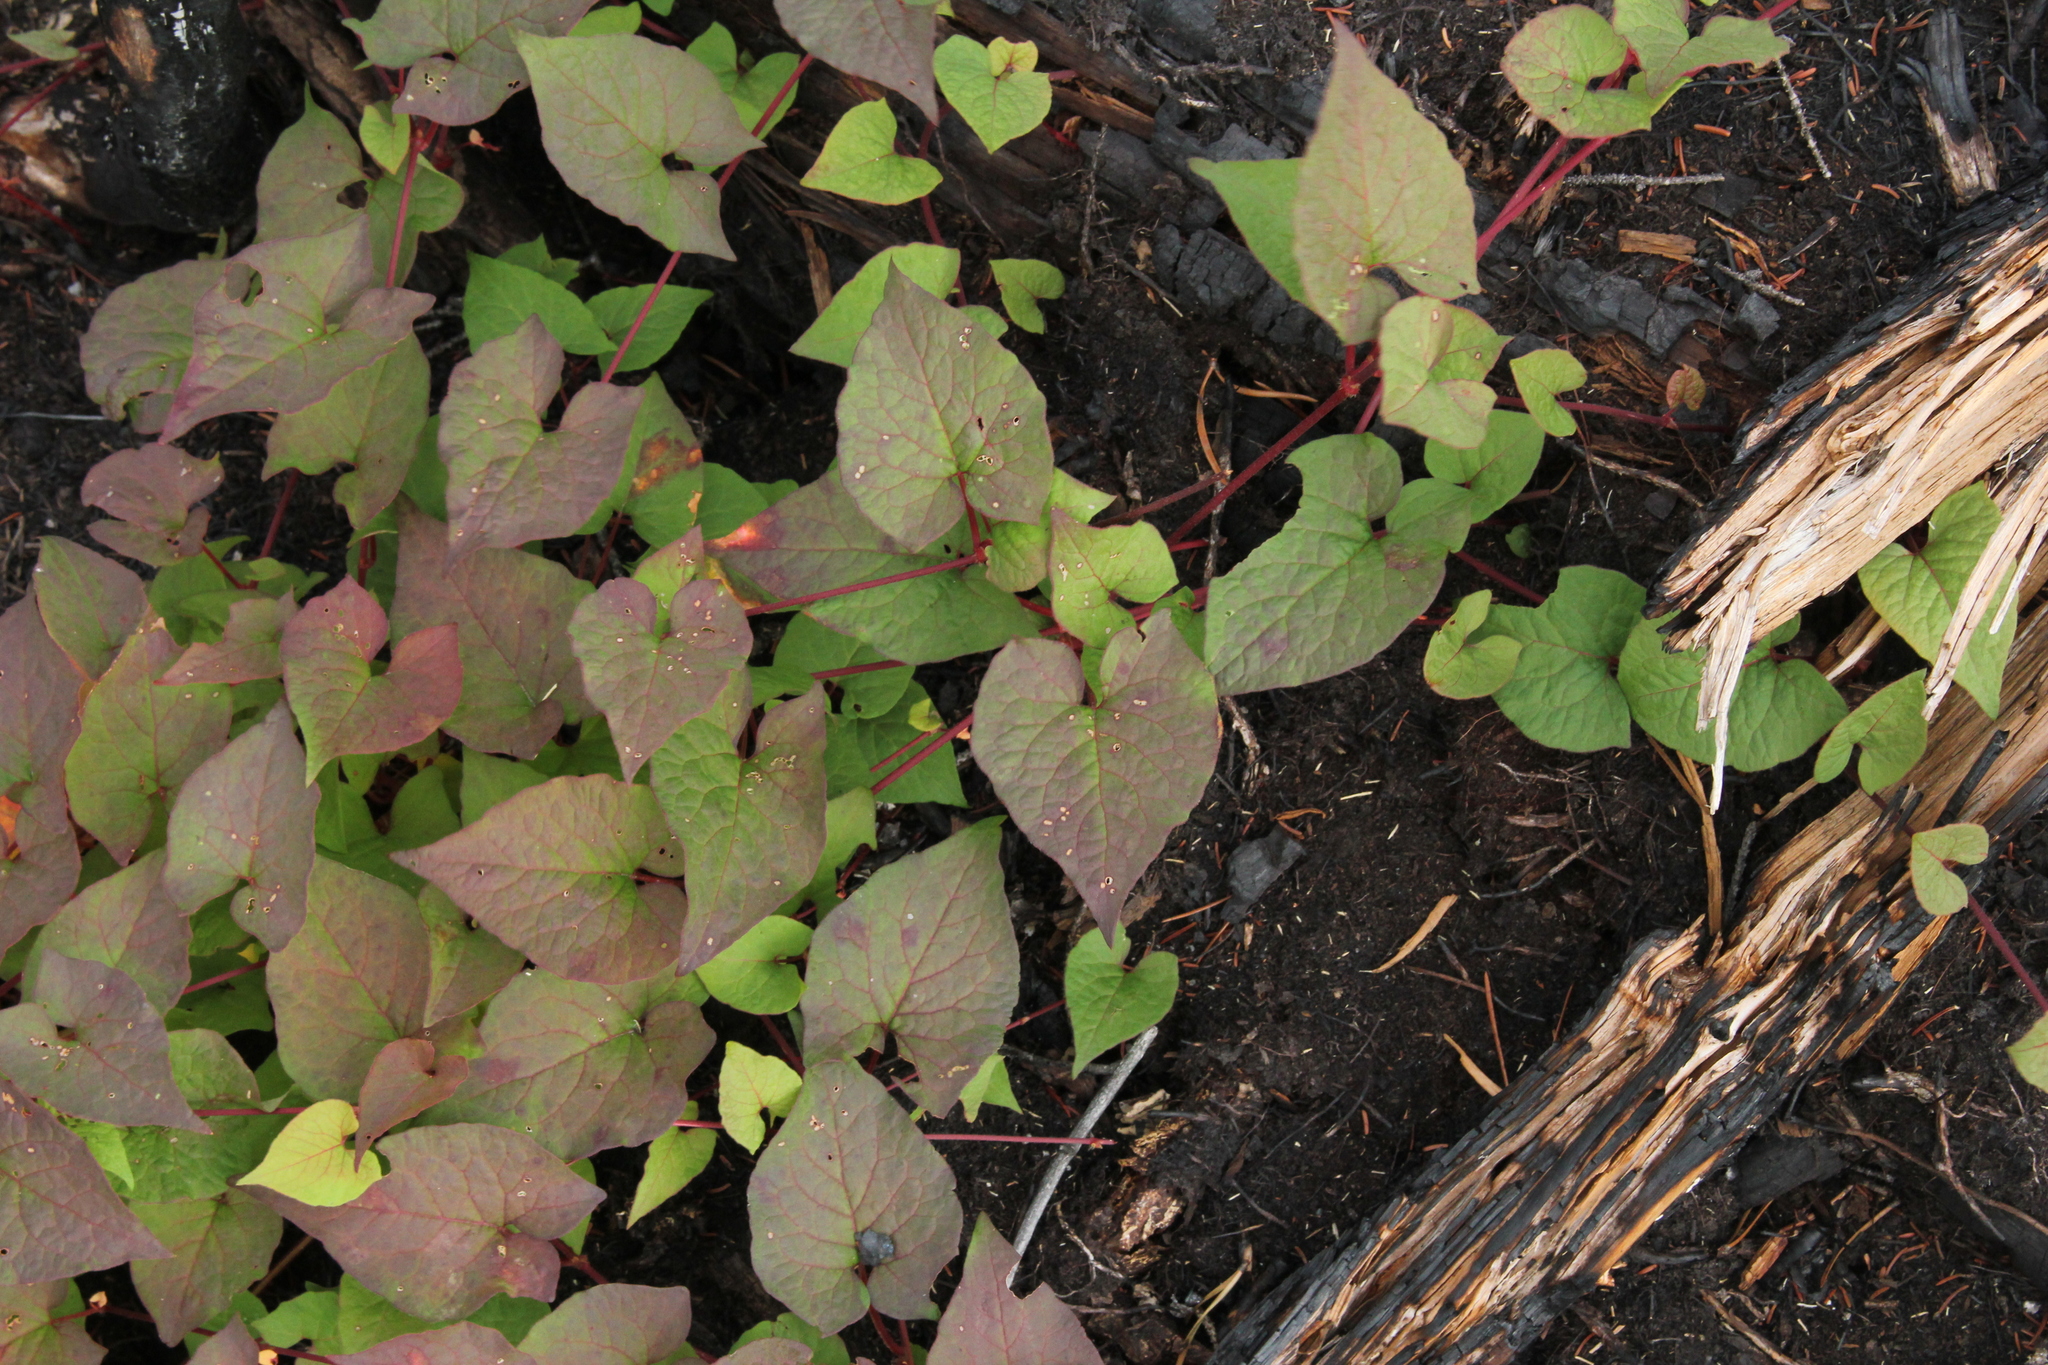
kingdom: Plantae
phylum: Tracheophyta
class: Magnoliopsida
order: Caryophyllales
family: Polygonaceae
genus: Parogonum
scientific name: Parogonum ciliinode
